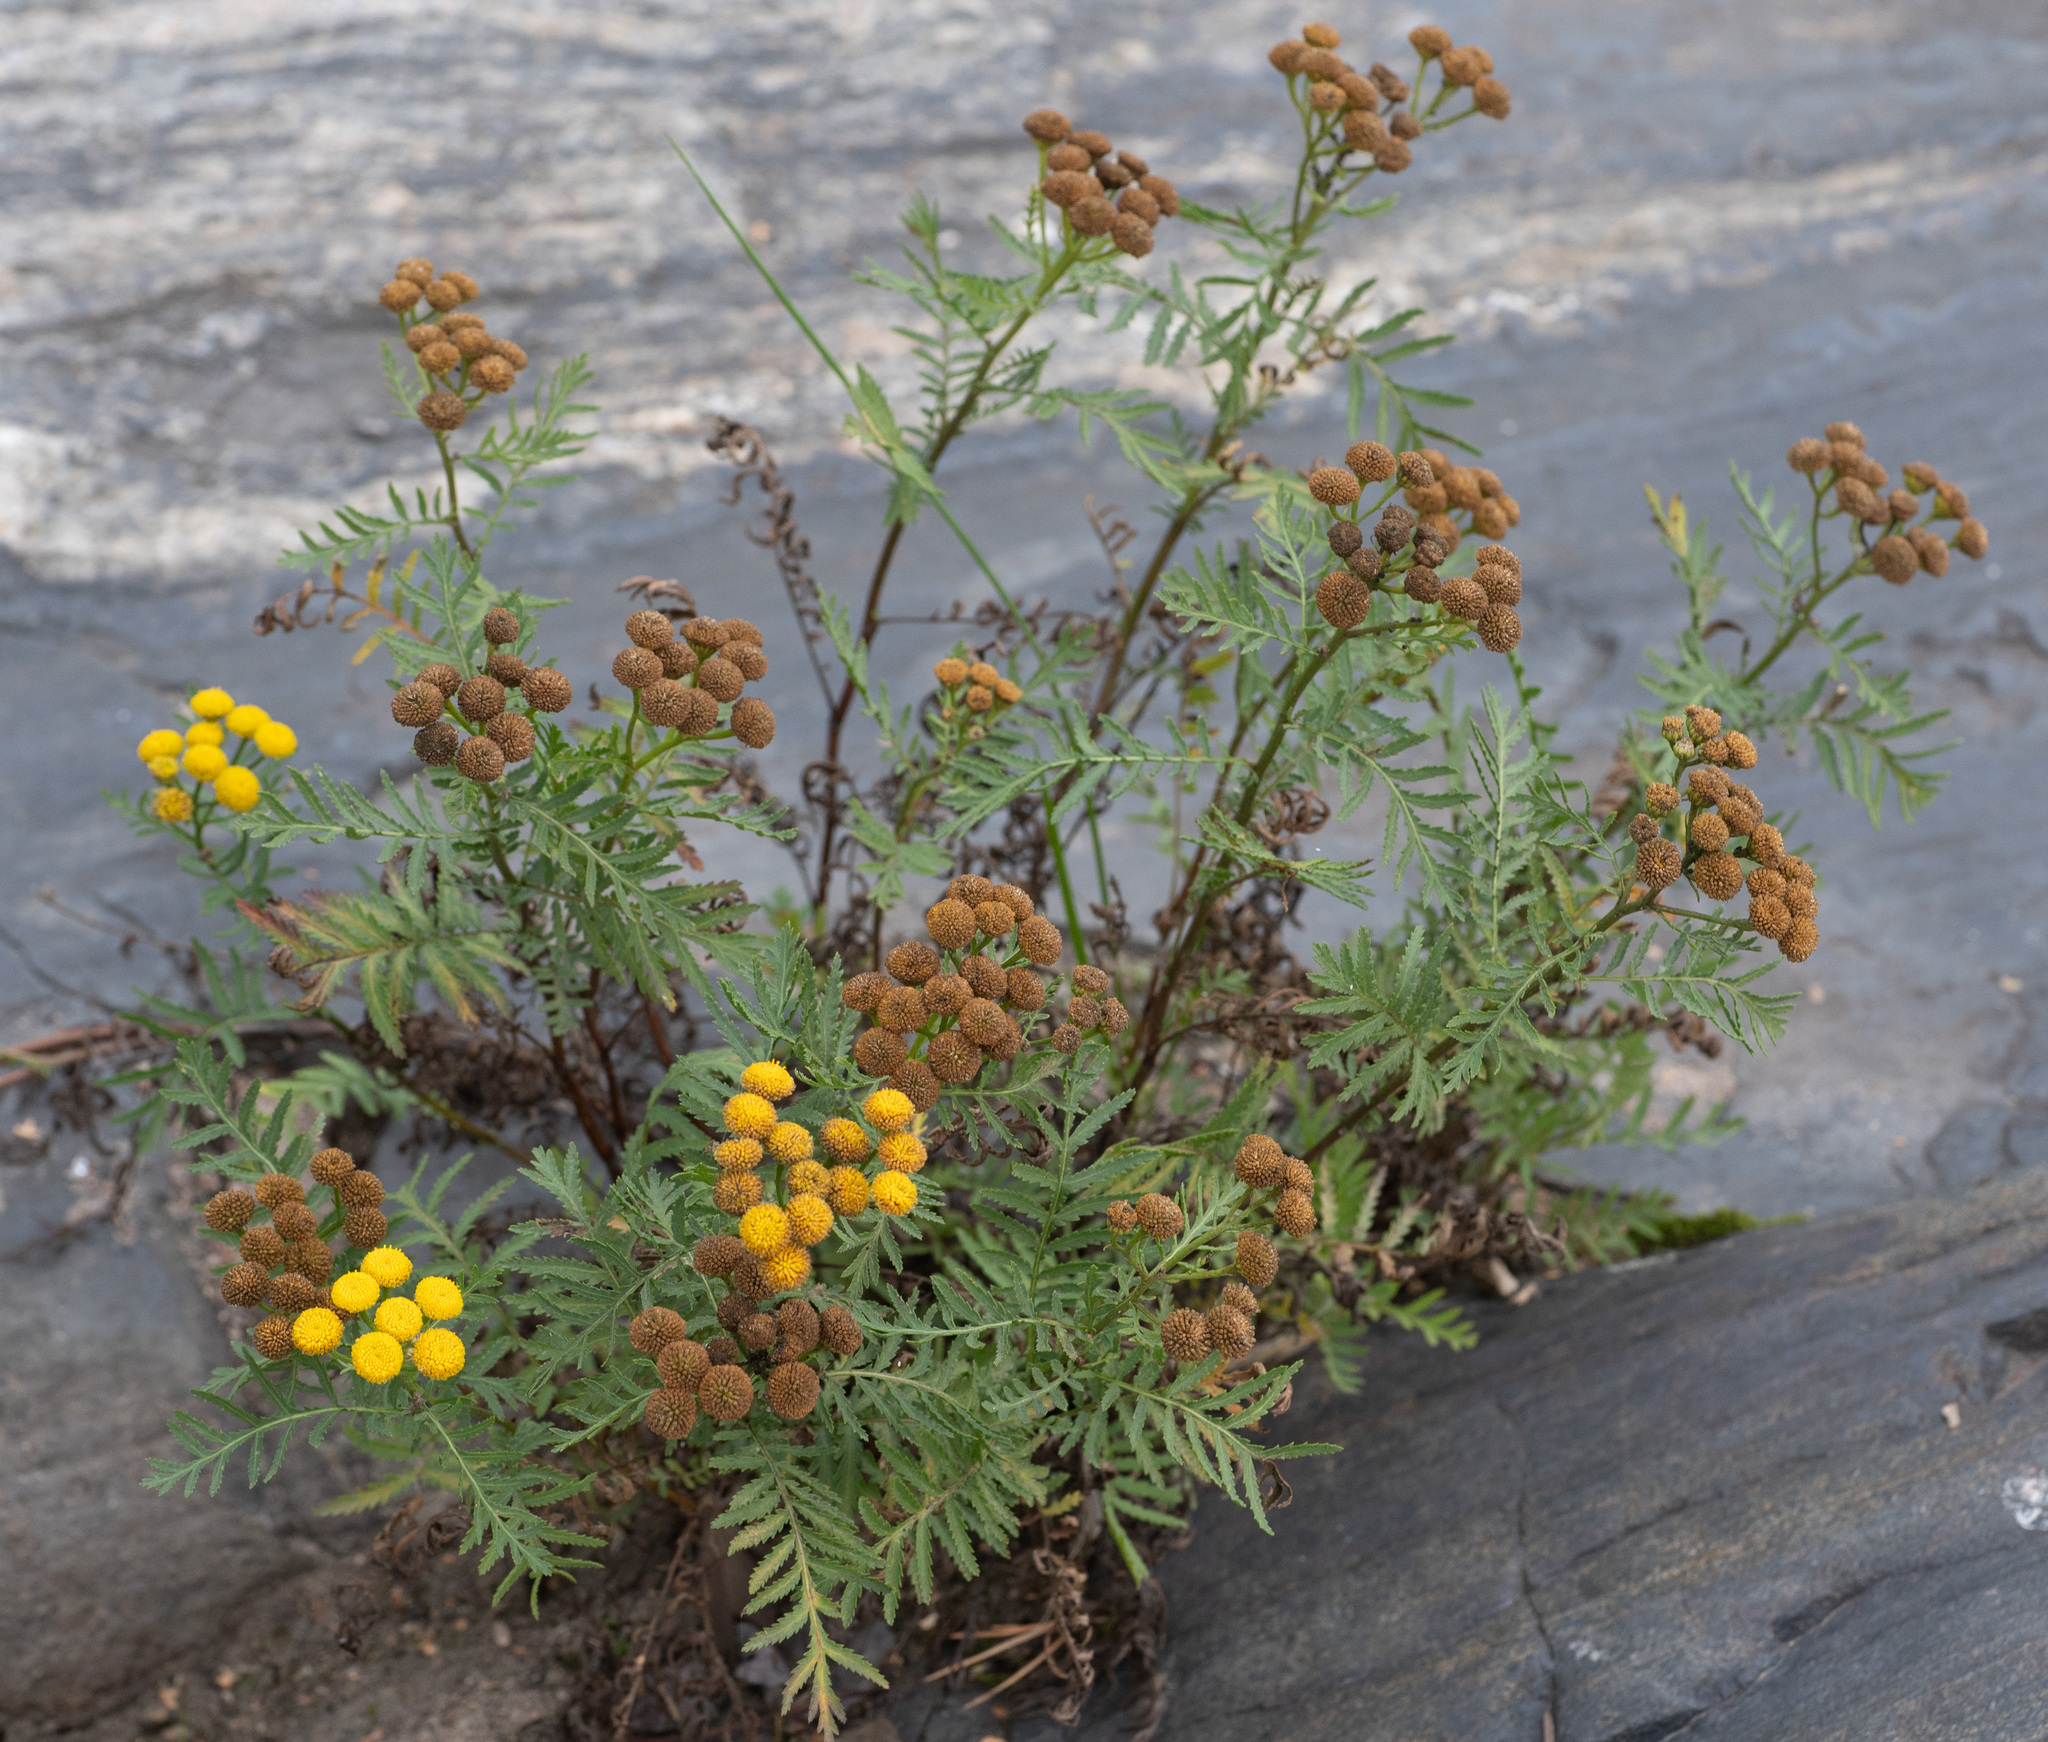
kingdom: Plantae
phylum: Tracheophyta
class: Magnoliopsida
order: Asterales
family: Asteraceae
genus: Tanacetum
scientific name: Tanacetum vulgare
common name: Common tansy
